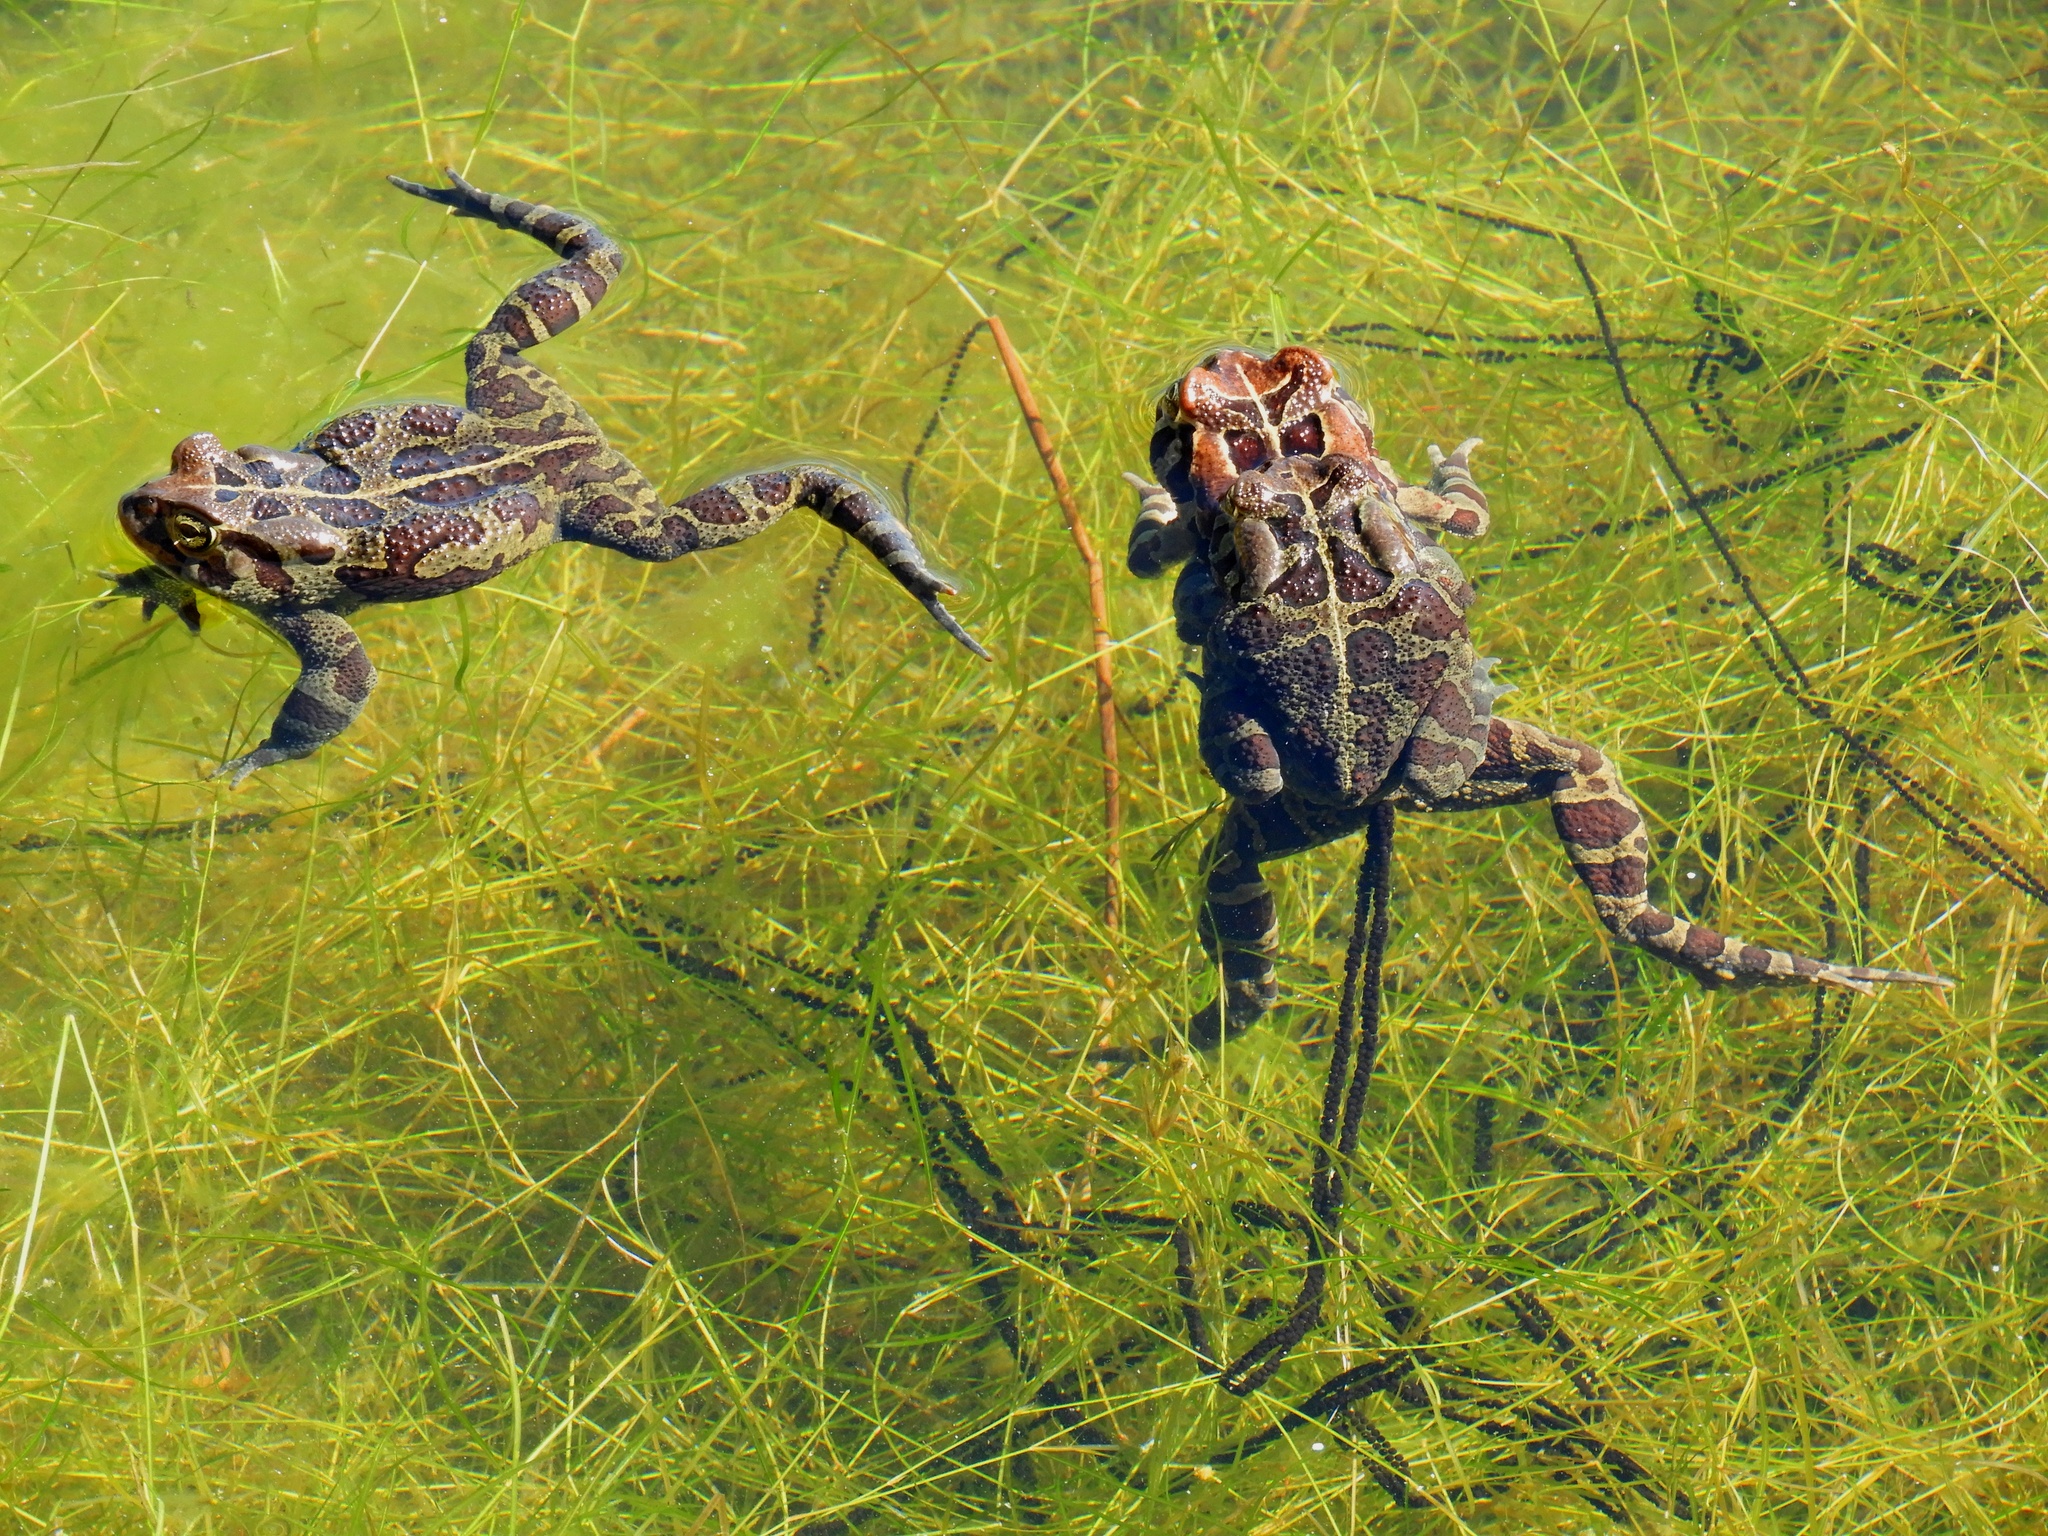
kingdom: Animalia
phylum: Chordata
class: Amphibia
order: Anura
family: Bufonidae
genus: Sclerophrys
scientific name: Sclerophrys pantherina
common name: Panther toad
